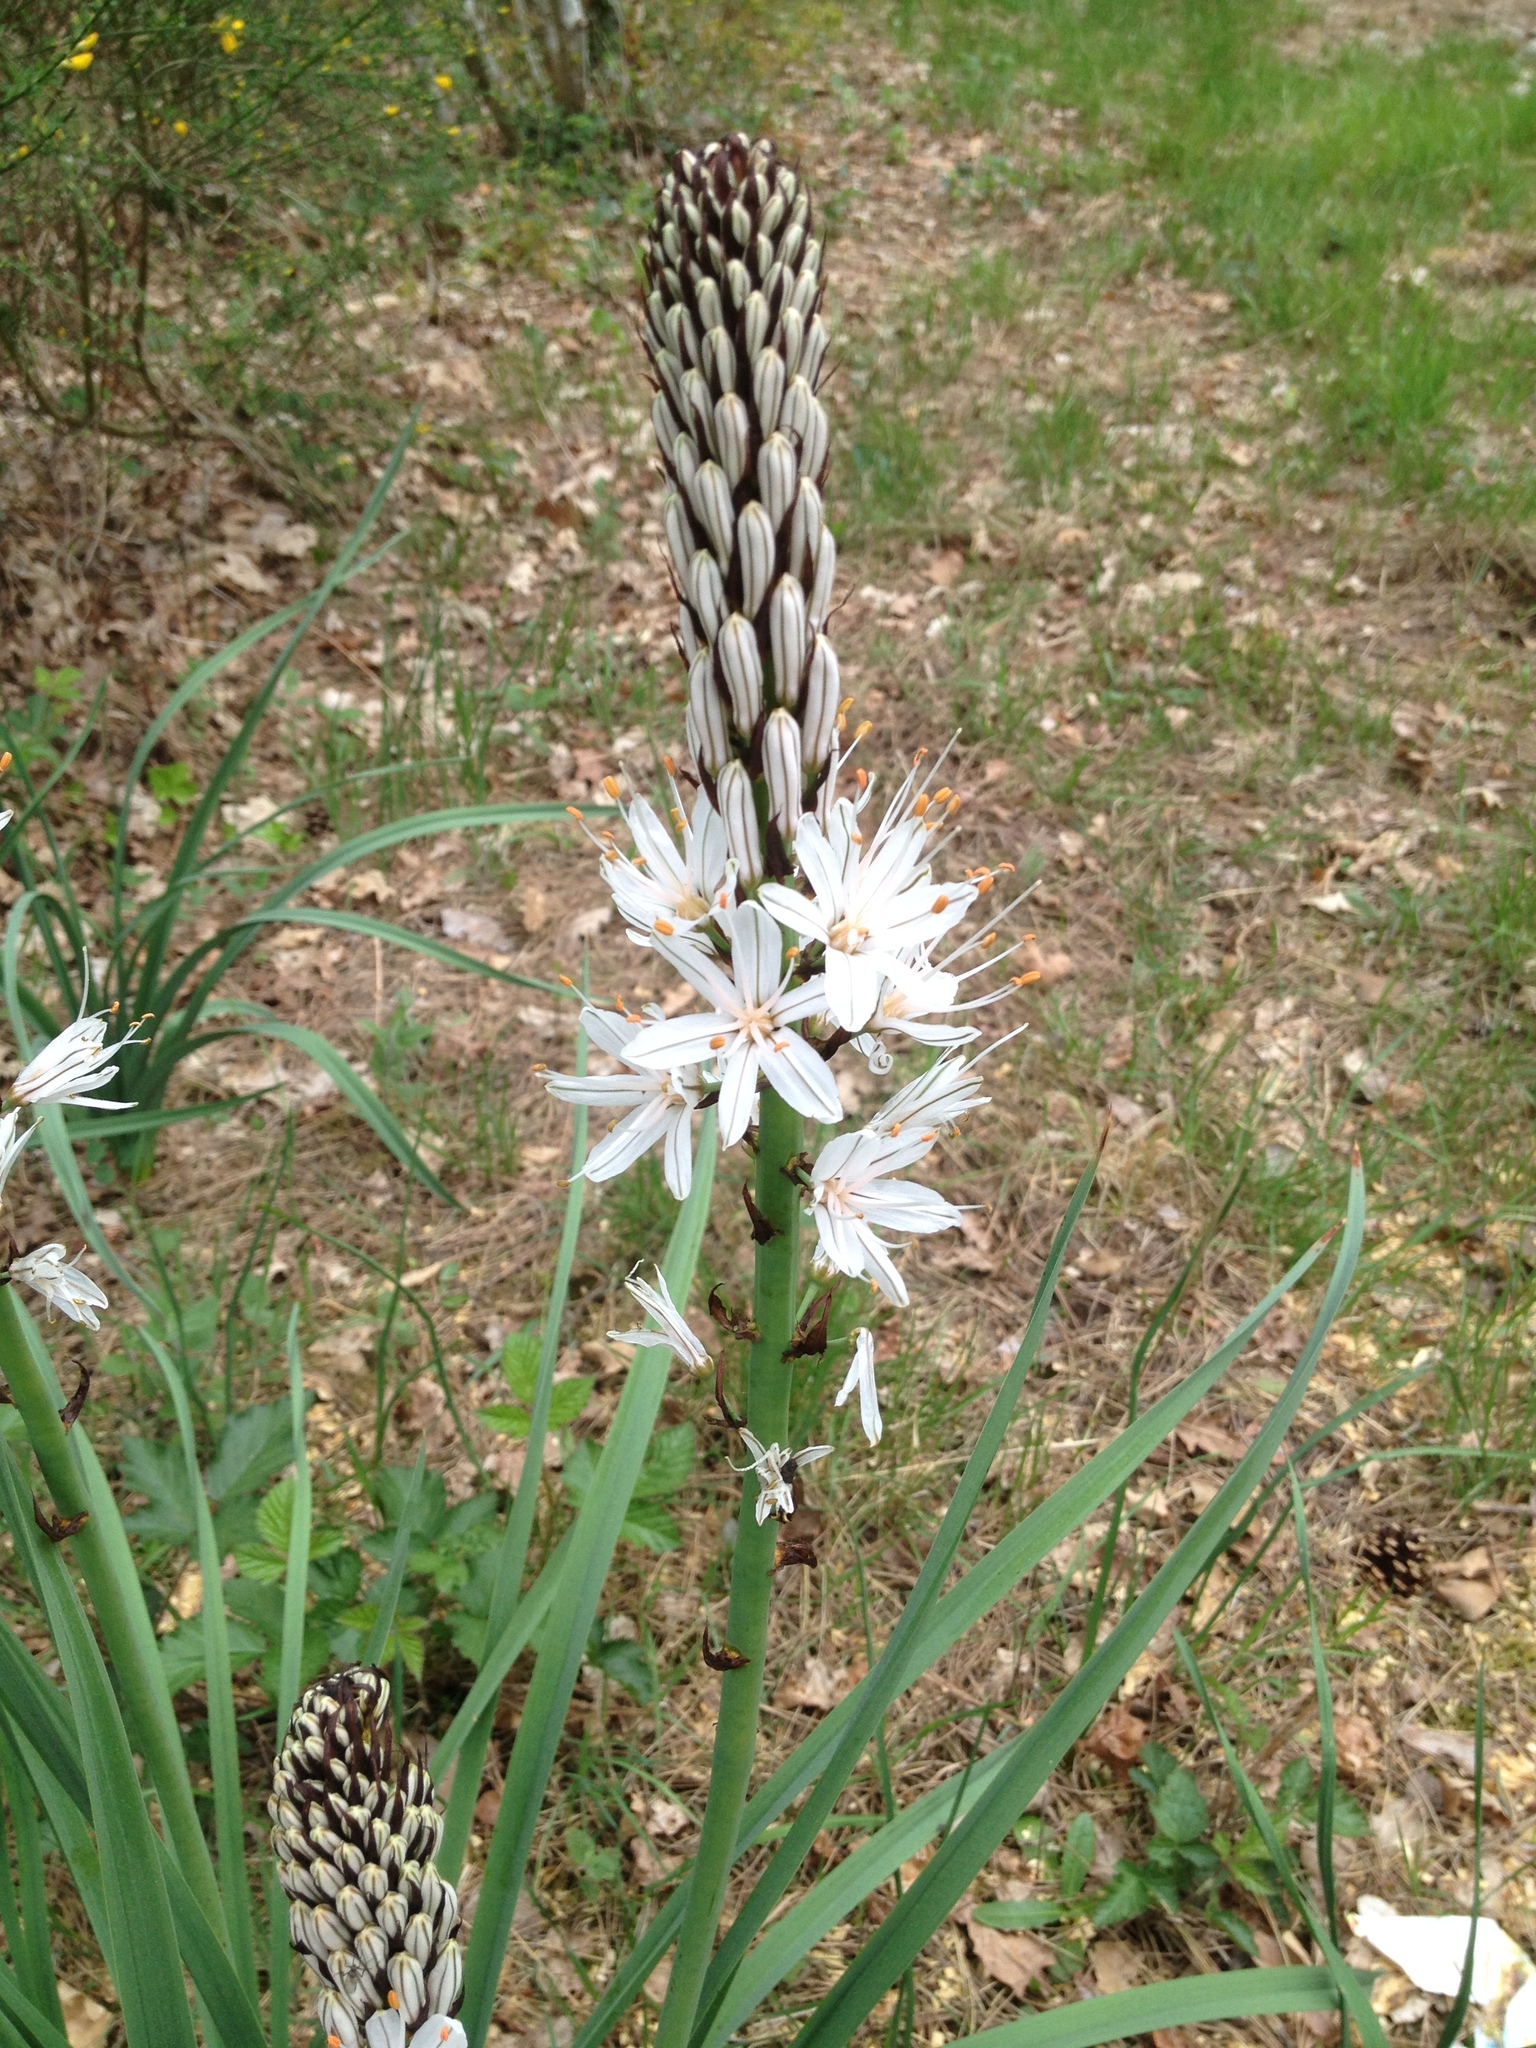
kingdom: Plantae
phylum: Tracheophyta
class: Liliopsida
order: Asparagales
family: Asphodelaceae
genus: Asphodelus
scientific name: Asphodelus albus
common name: White asphodel
